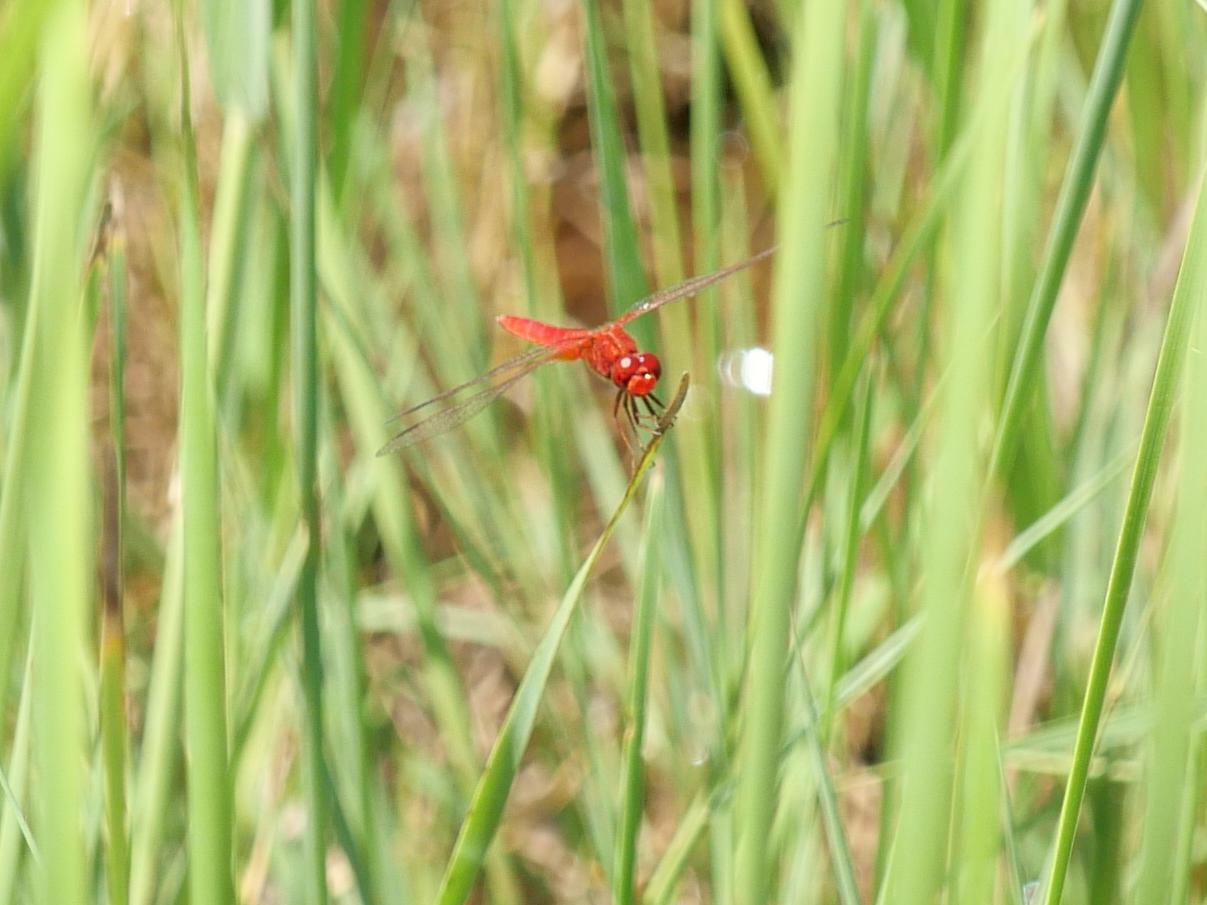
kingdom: Animalia
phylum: Arthropoda
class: Insecta
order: Odonata
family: Libellulidae
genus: Crocothemis
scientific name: Crocothemis erythraea
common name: Scarlet dragonfly
